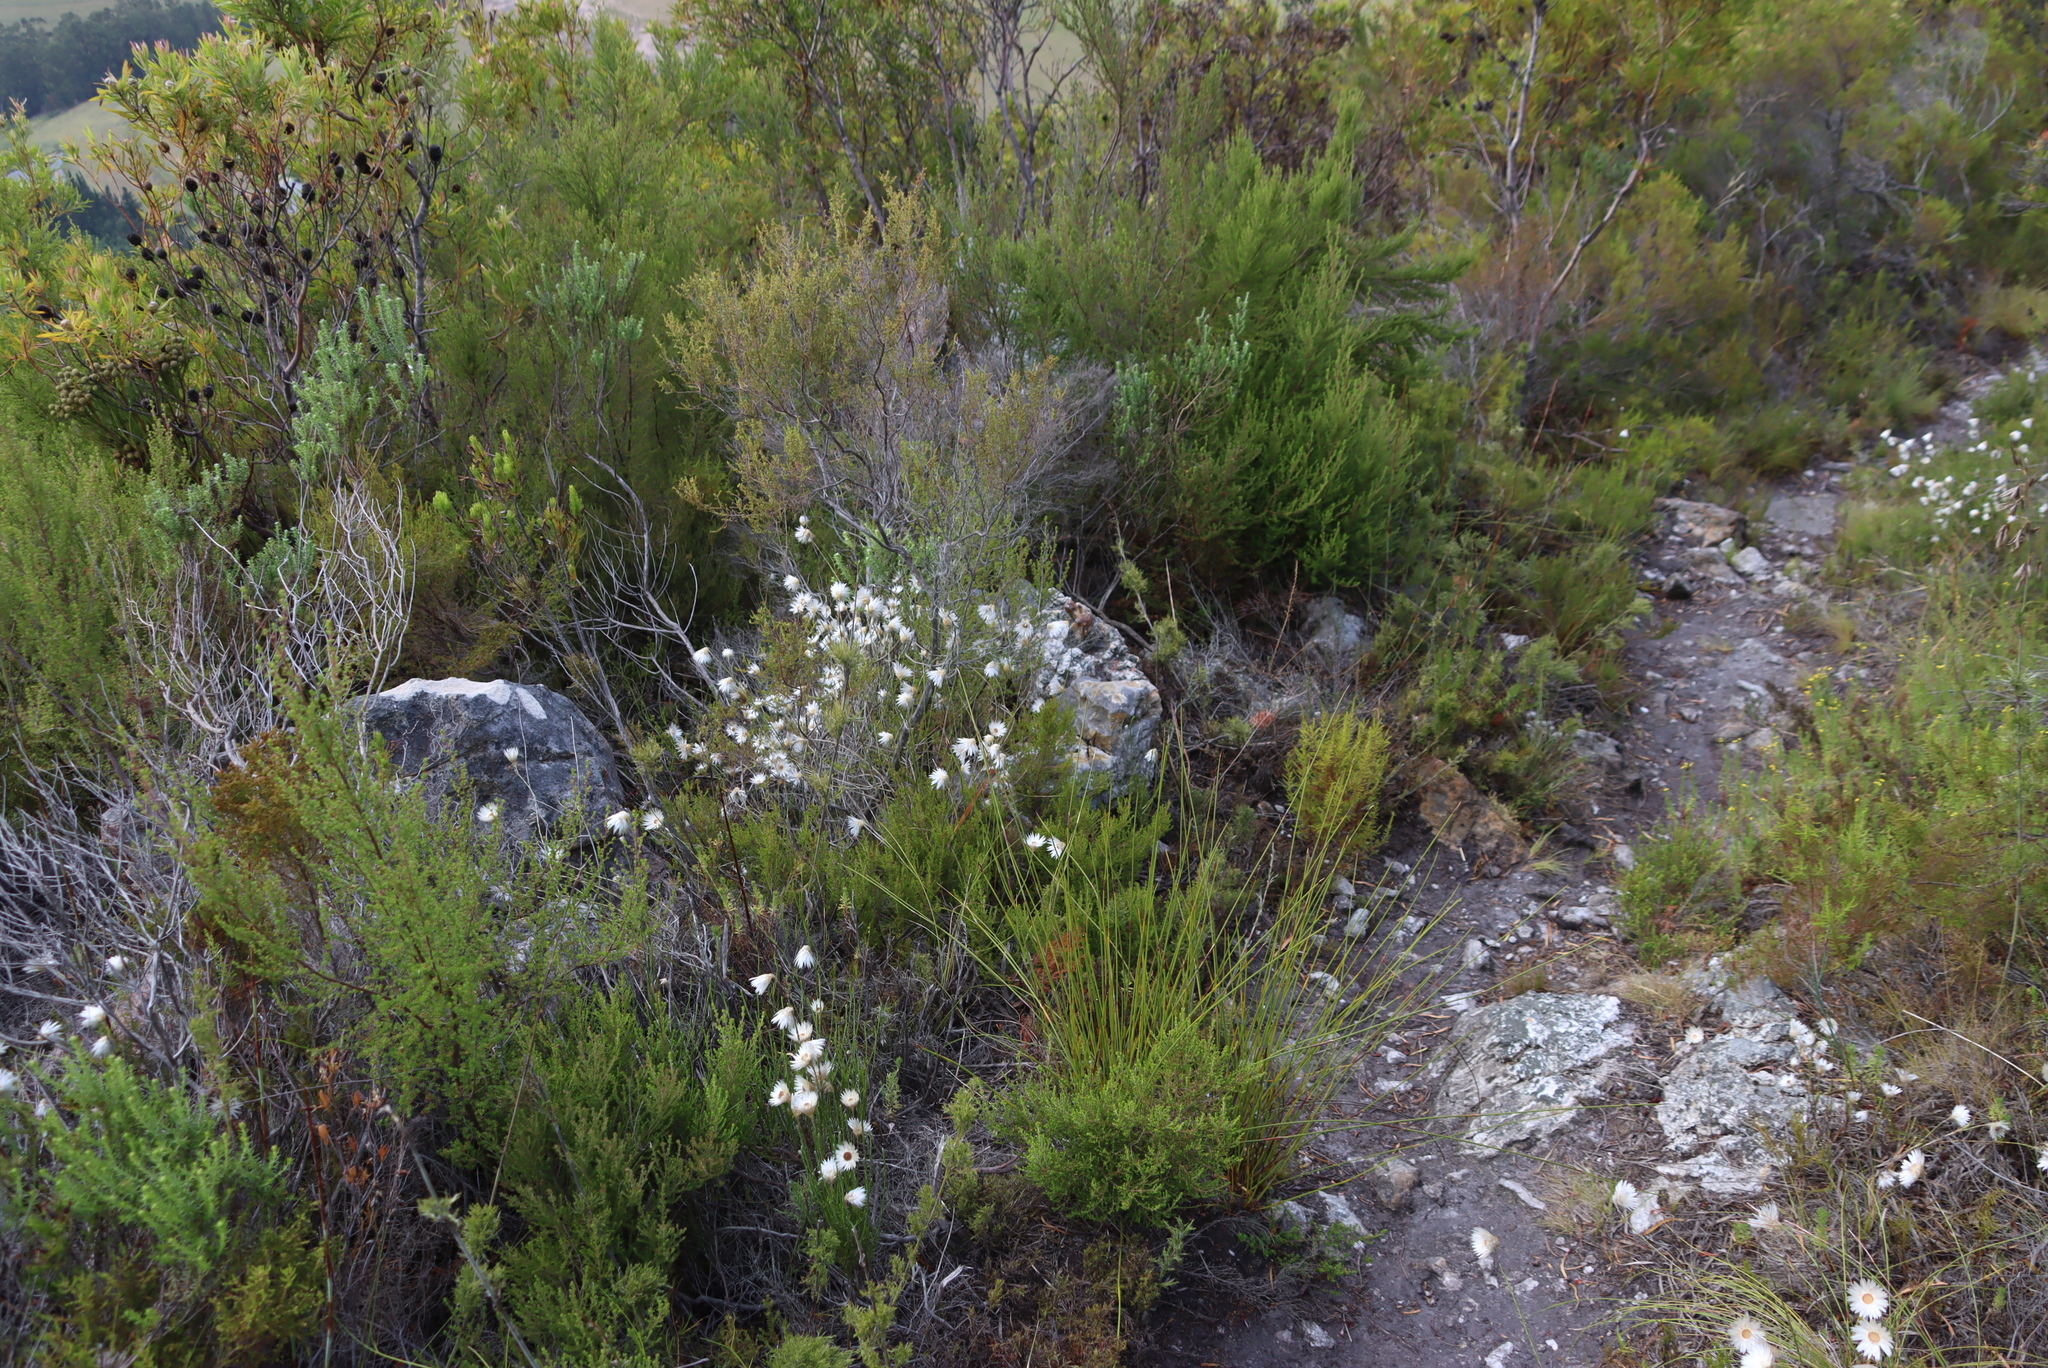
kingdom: Plantae
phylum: Tracheophyta
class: Magnoliopsida
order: Asterales
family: Asteraceae
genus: Edmondia
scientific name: Edmondia sesamoides
